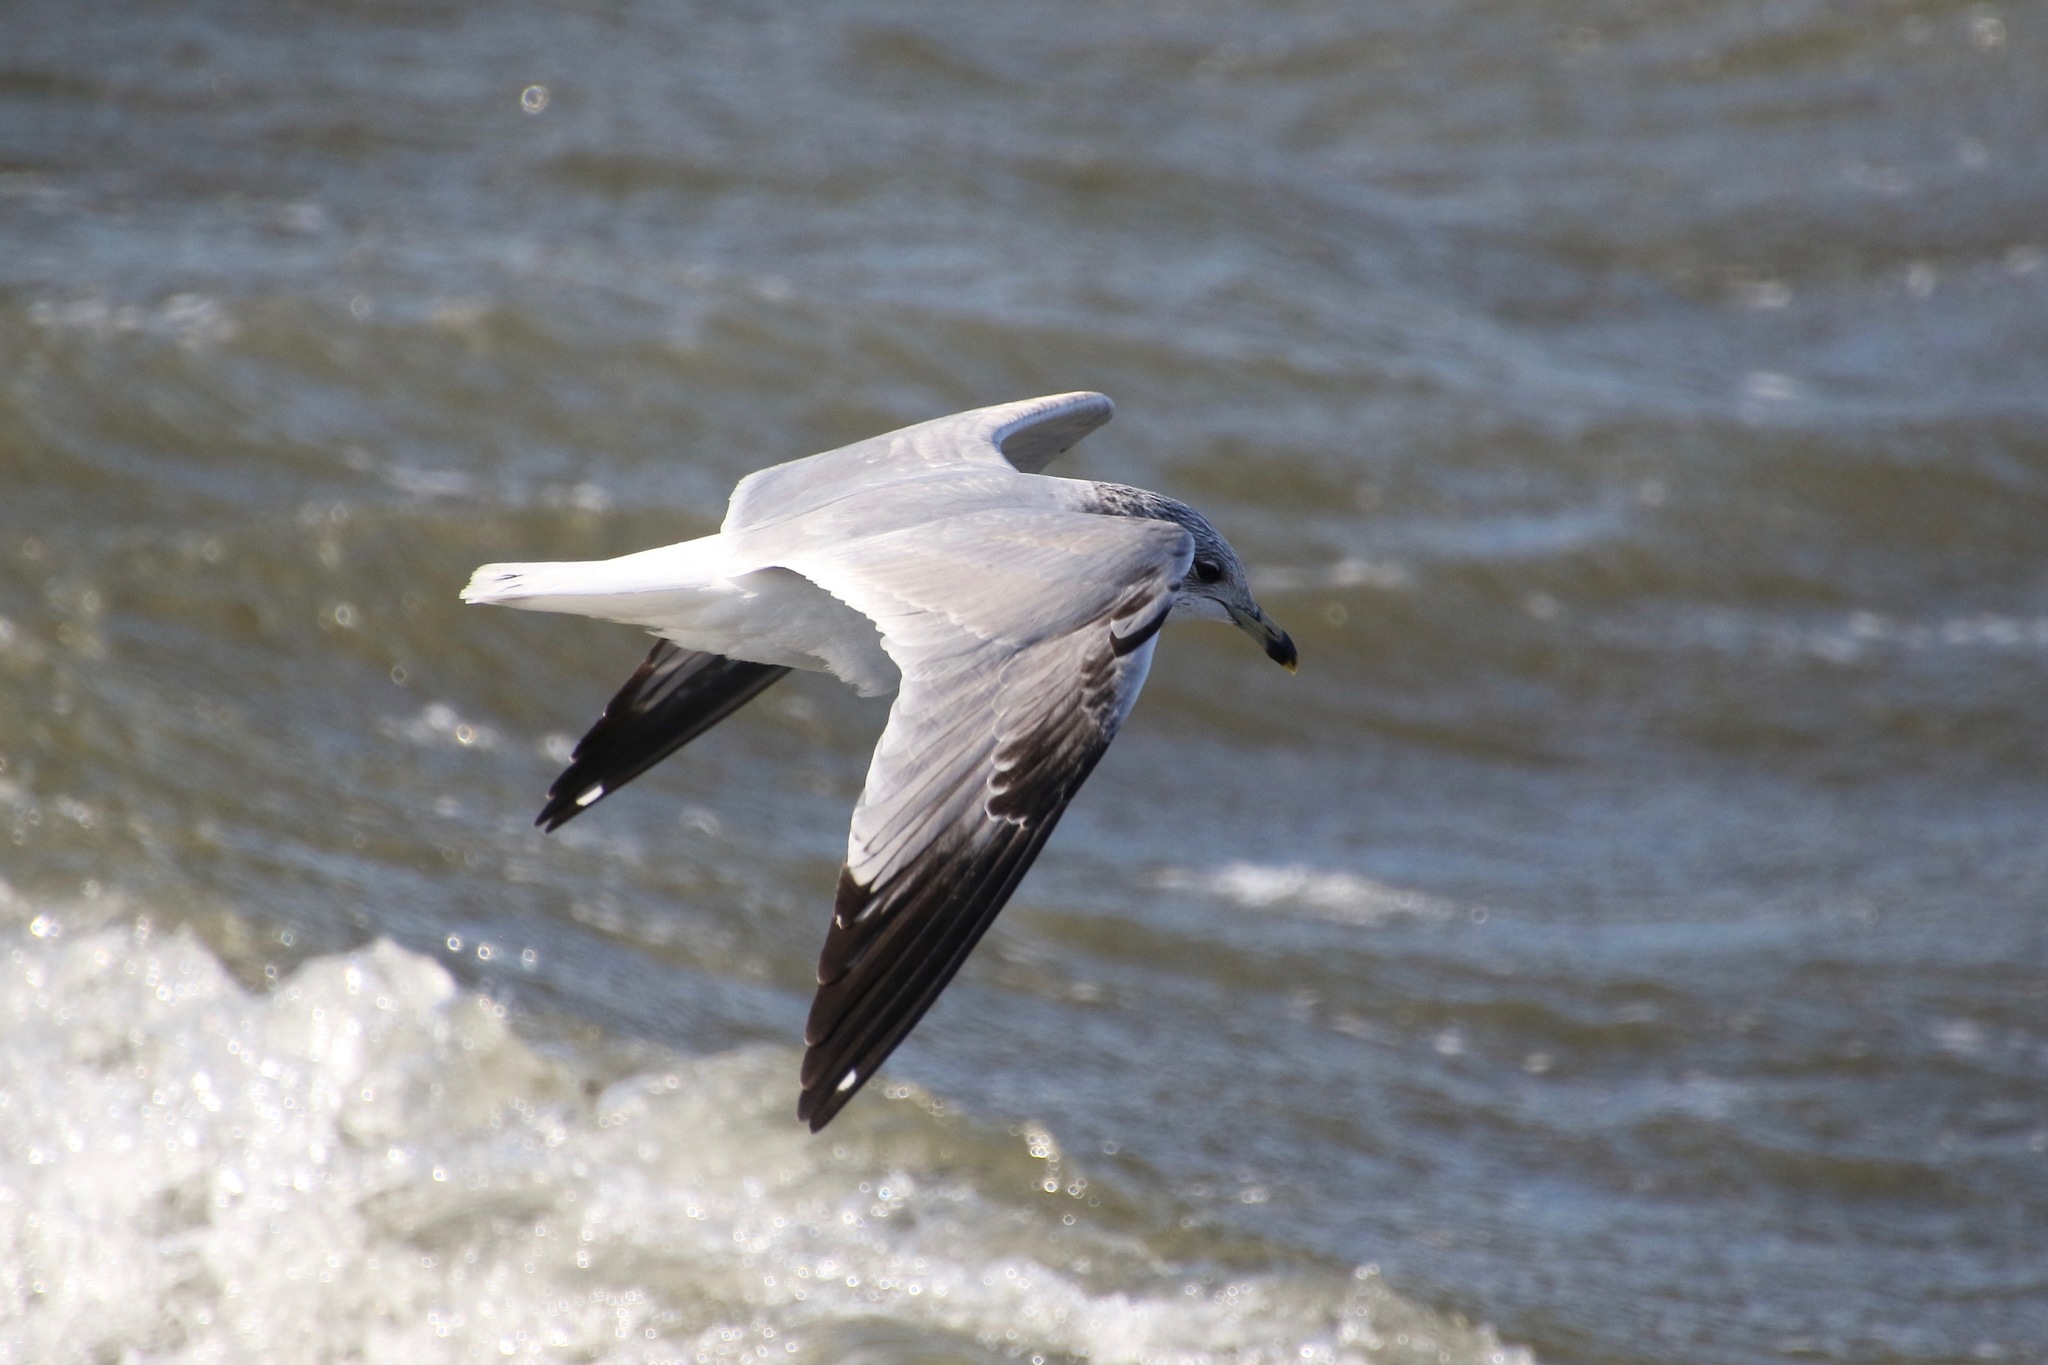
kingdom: Animalia
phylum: Chordata
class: Aves
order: Charadriiformes
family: Laridae
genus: Larus
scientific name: Larus delawarensis
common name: Ring-billed gull
